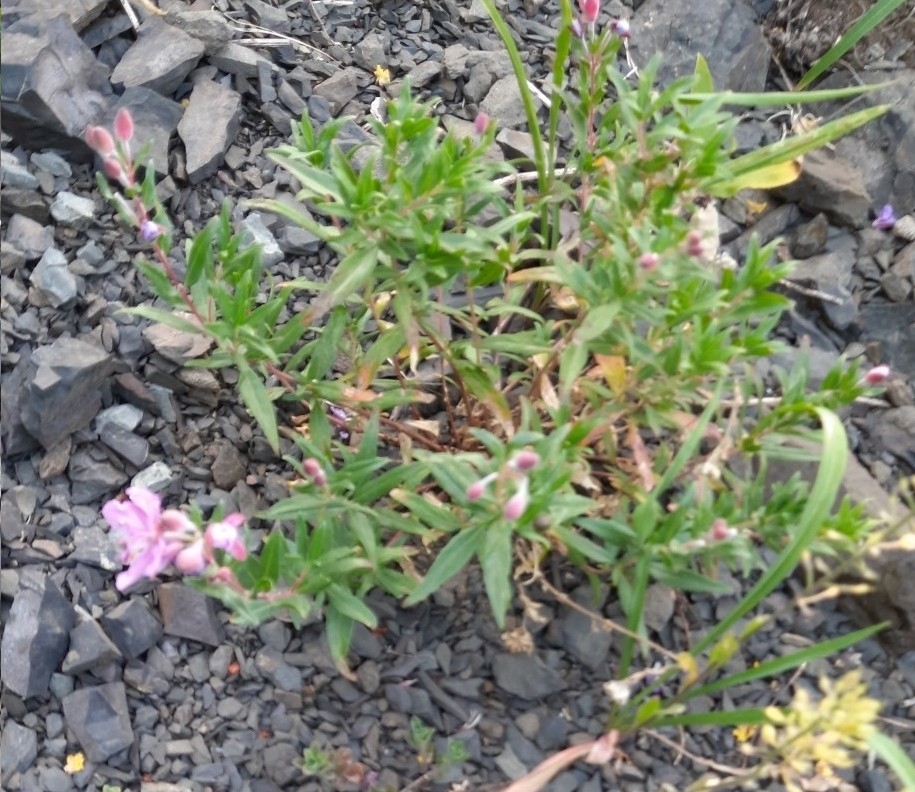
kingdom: Plantae
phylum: Tracheophyta
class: Magnoliopsida
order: Myrtales
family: Onagraceae
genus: Chamaenerion
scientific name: Chamaenerion colchicum
